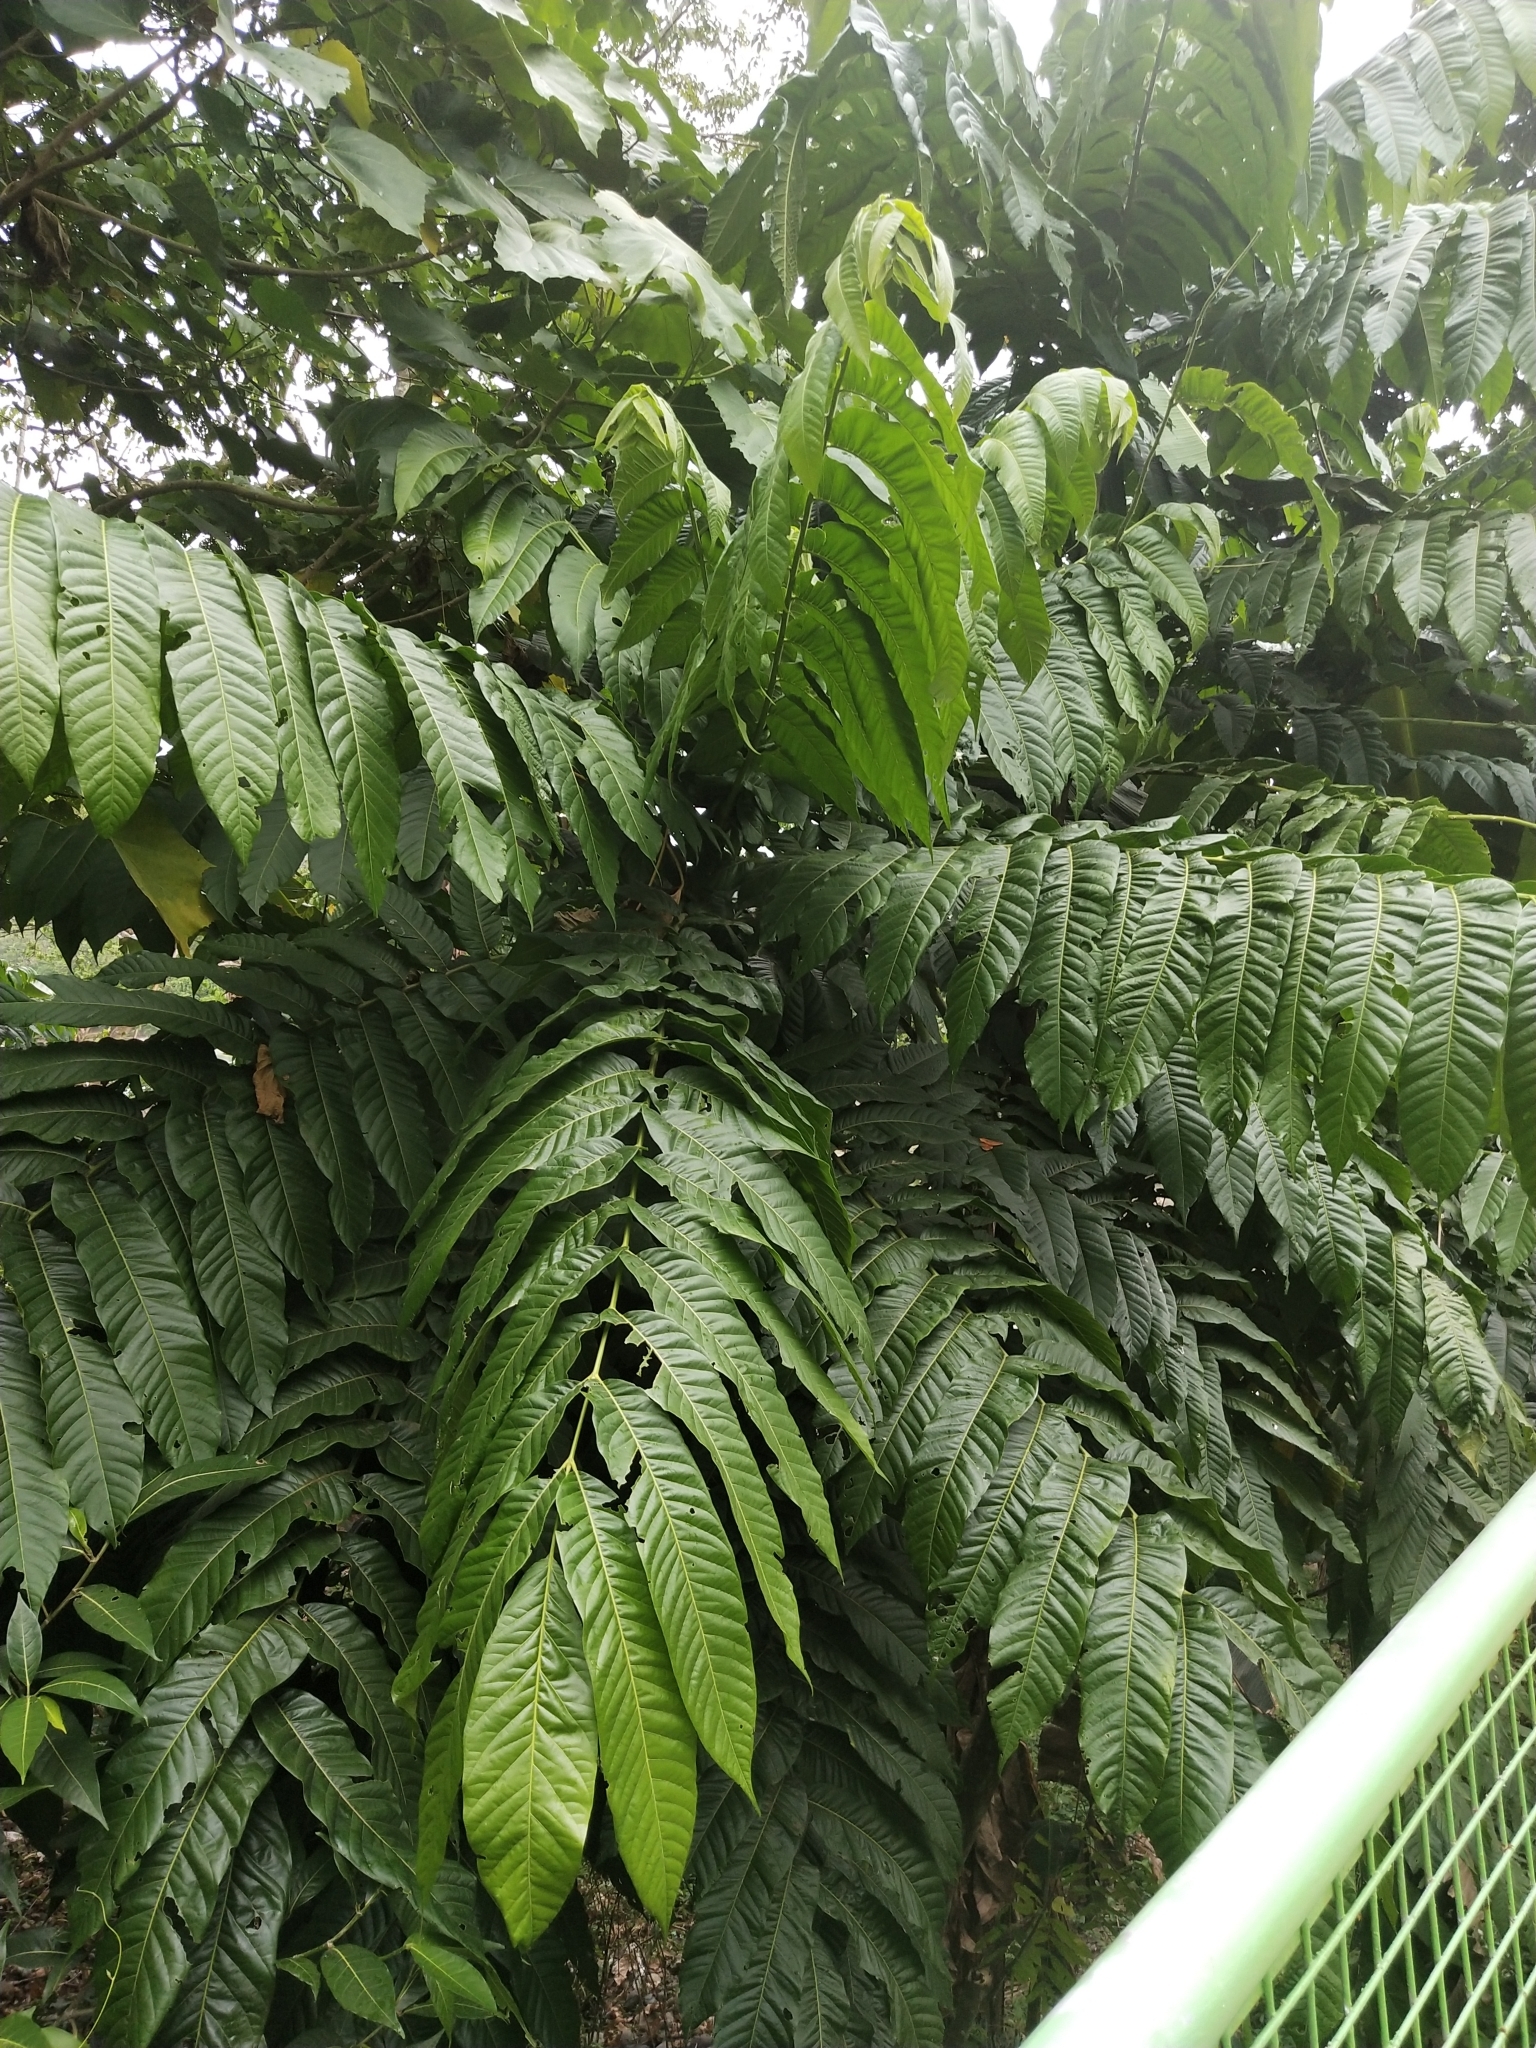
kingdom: Plantae
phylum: Tracheophyta
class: Magnoliopsida
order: Sapindales
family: Anacardiaceae
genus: Dracontomelon
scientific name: Dracontomelon dao
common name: Argus pheasant-tree
